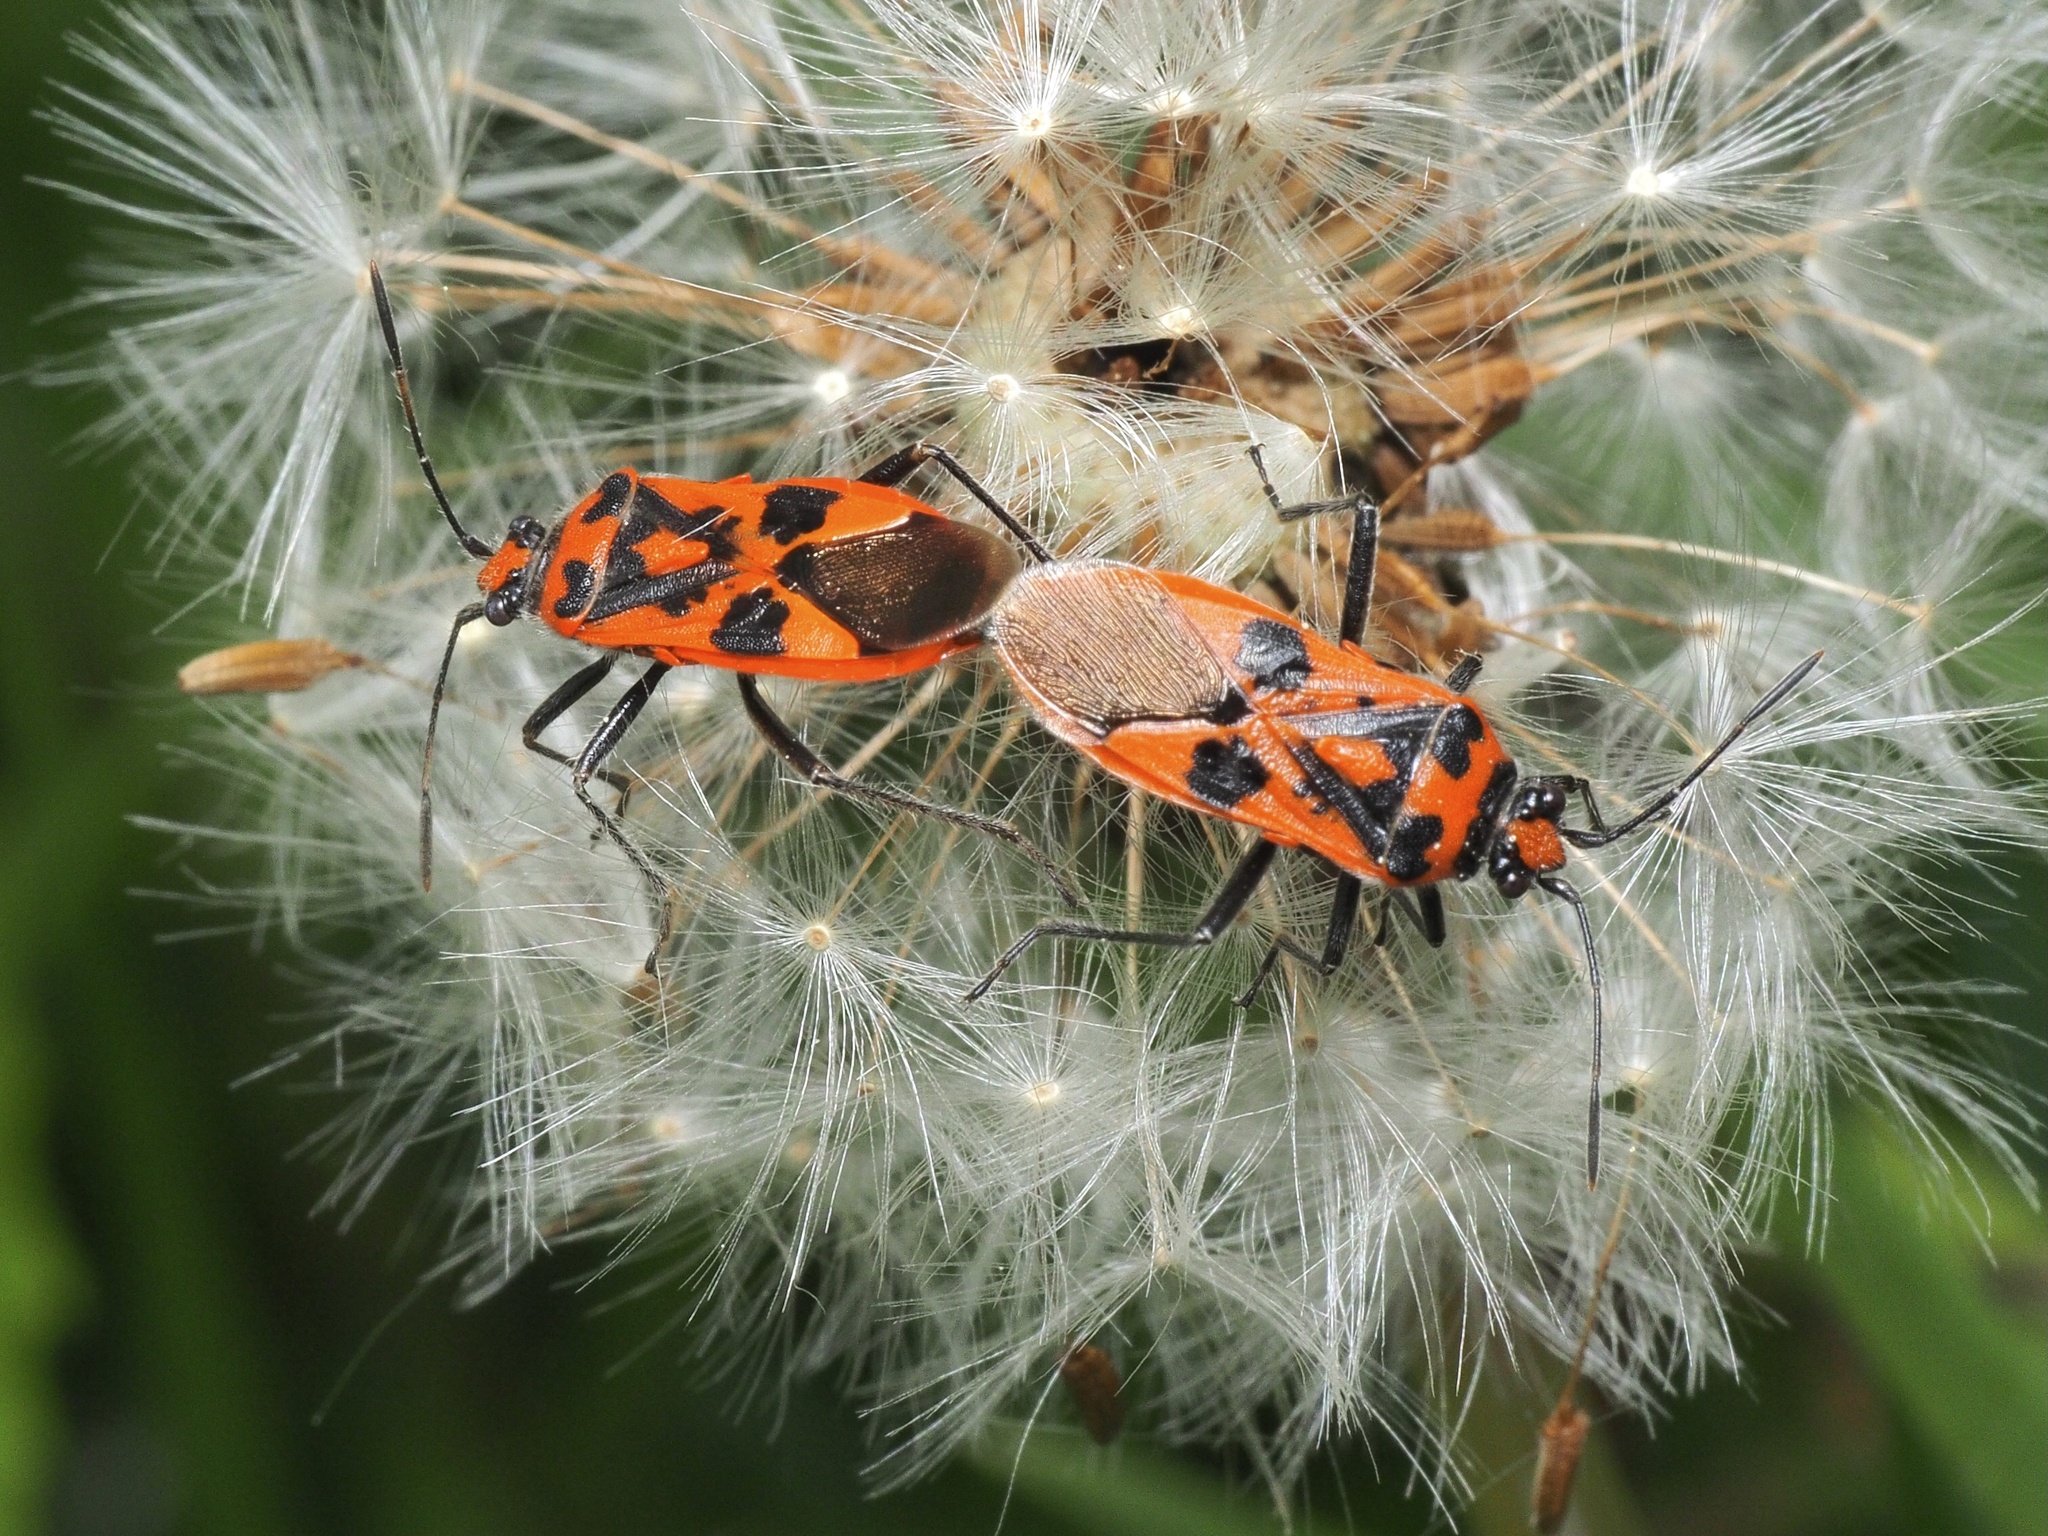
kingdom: Animalia
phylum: Arthropoda
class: Insecta
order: Hemiptera
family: Rhopalidae
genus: Corizus
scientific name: Corizus hyoscyami
